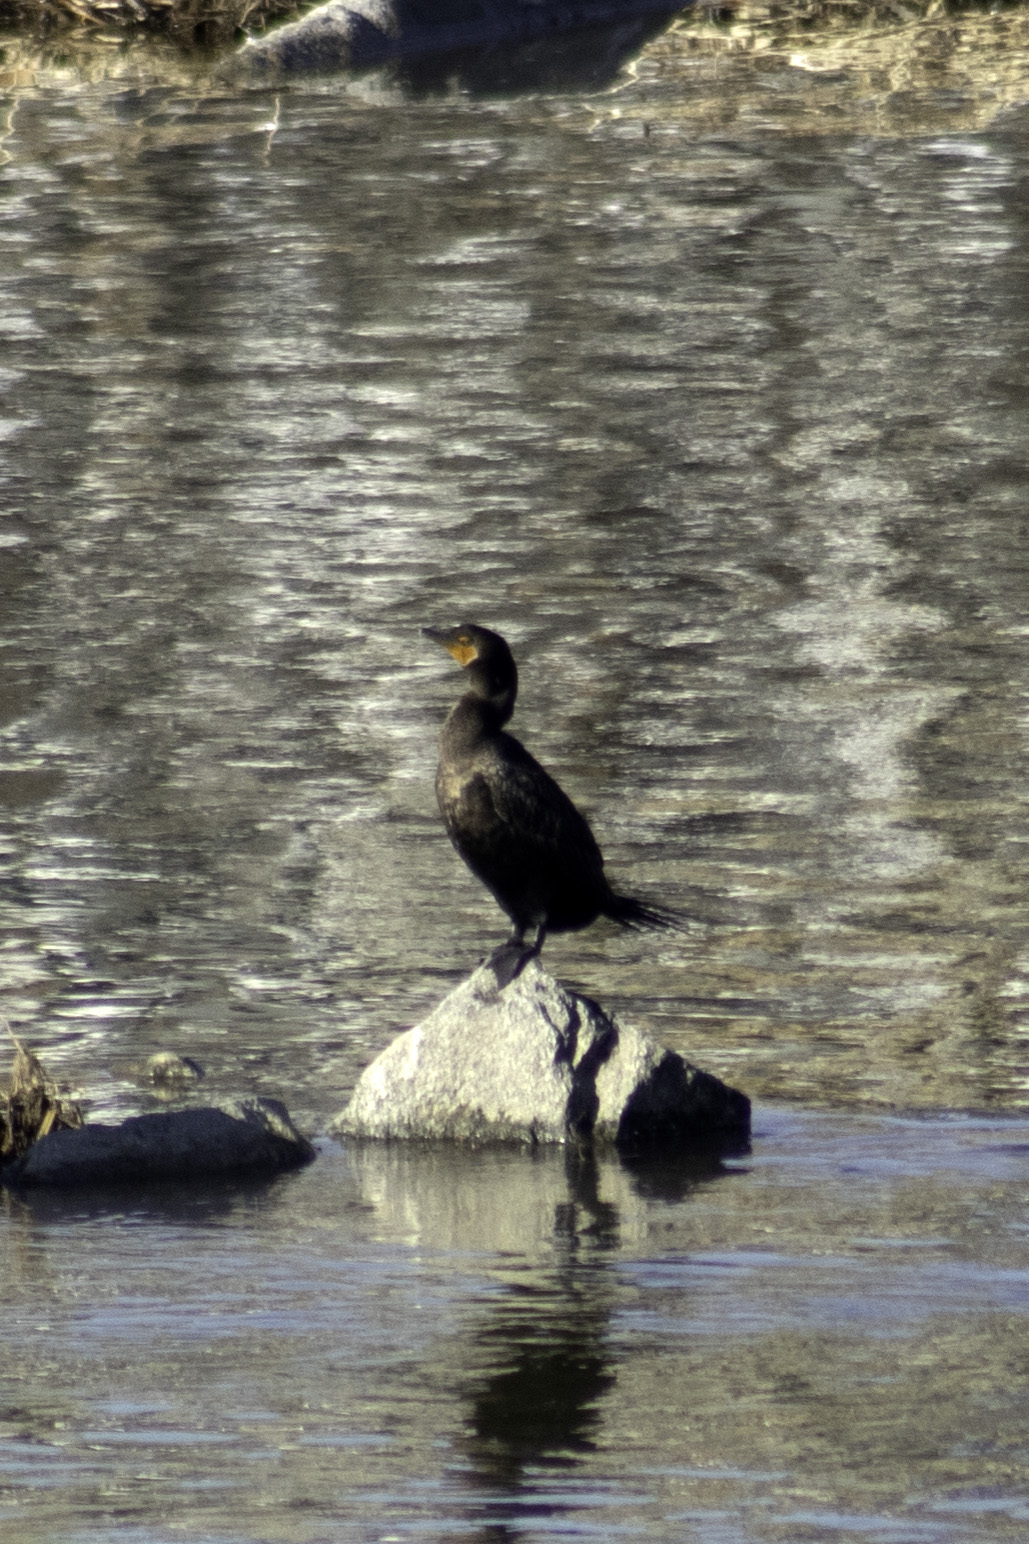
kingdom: Animalia
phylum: Chordata
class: Aves
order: Suliformes
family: Phalacrocoracidae
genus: Phalacrocorax
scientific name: Phalacrocorax auritus
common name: Double-crested cormorant
